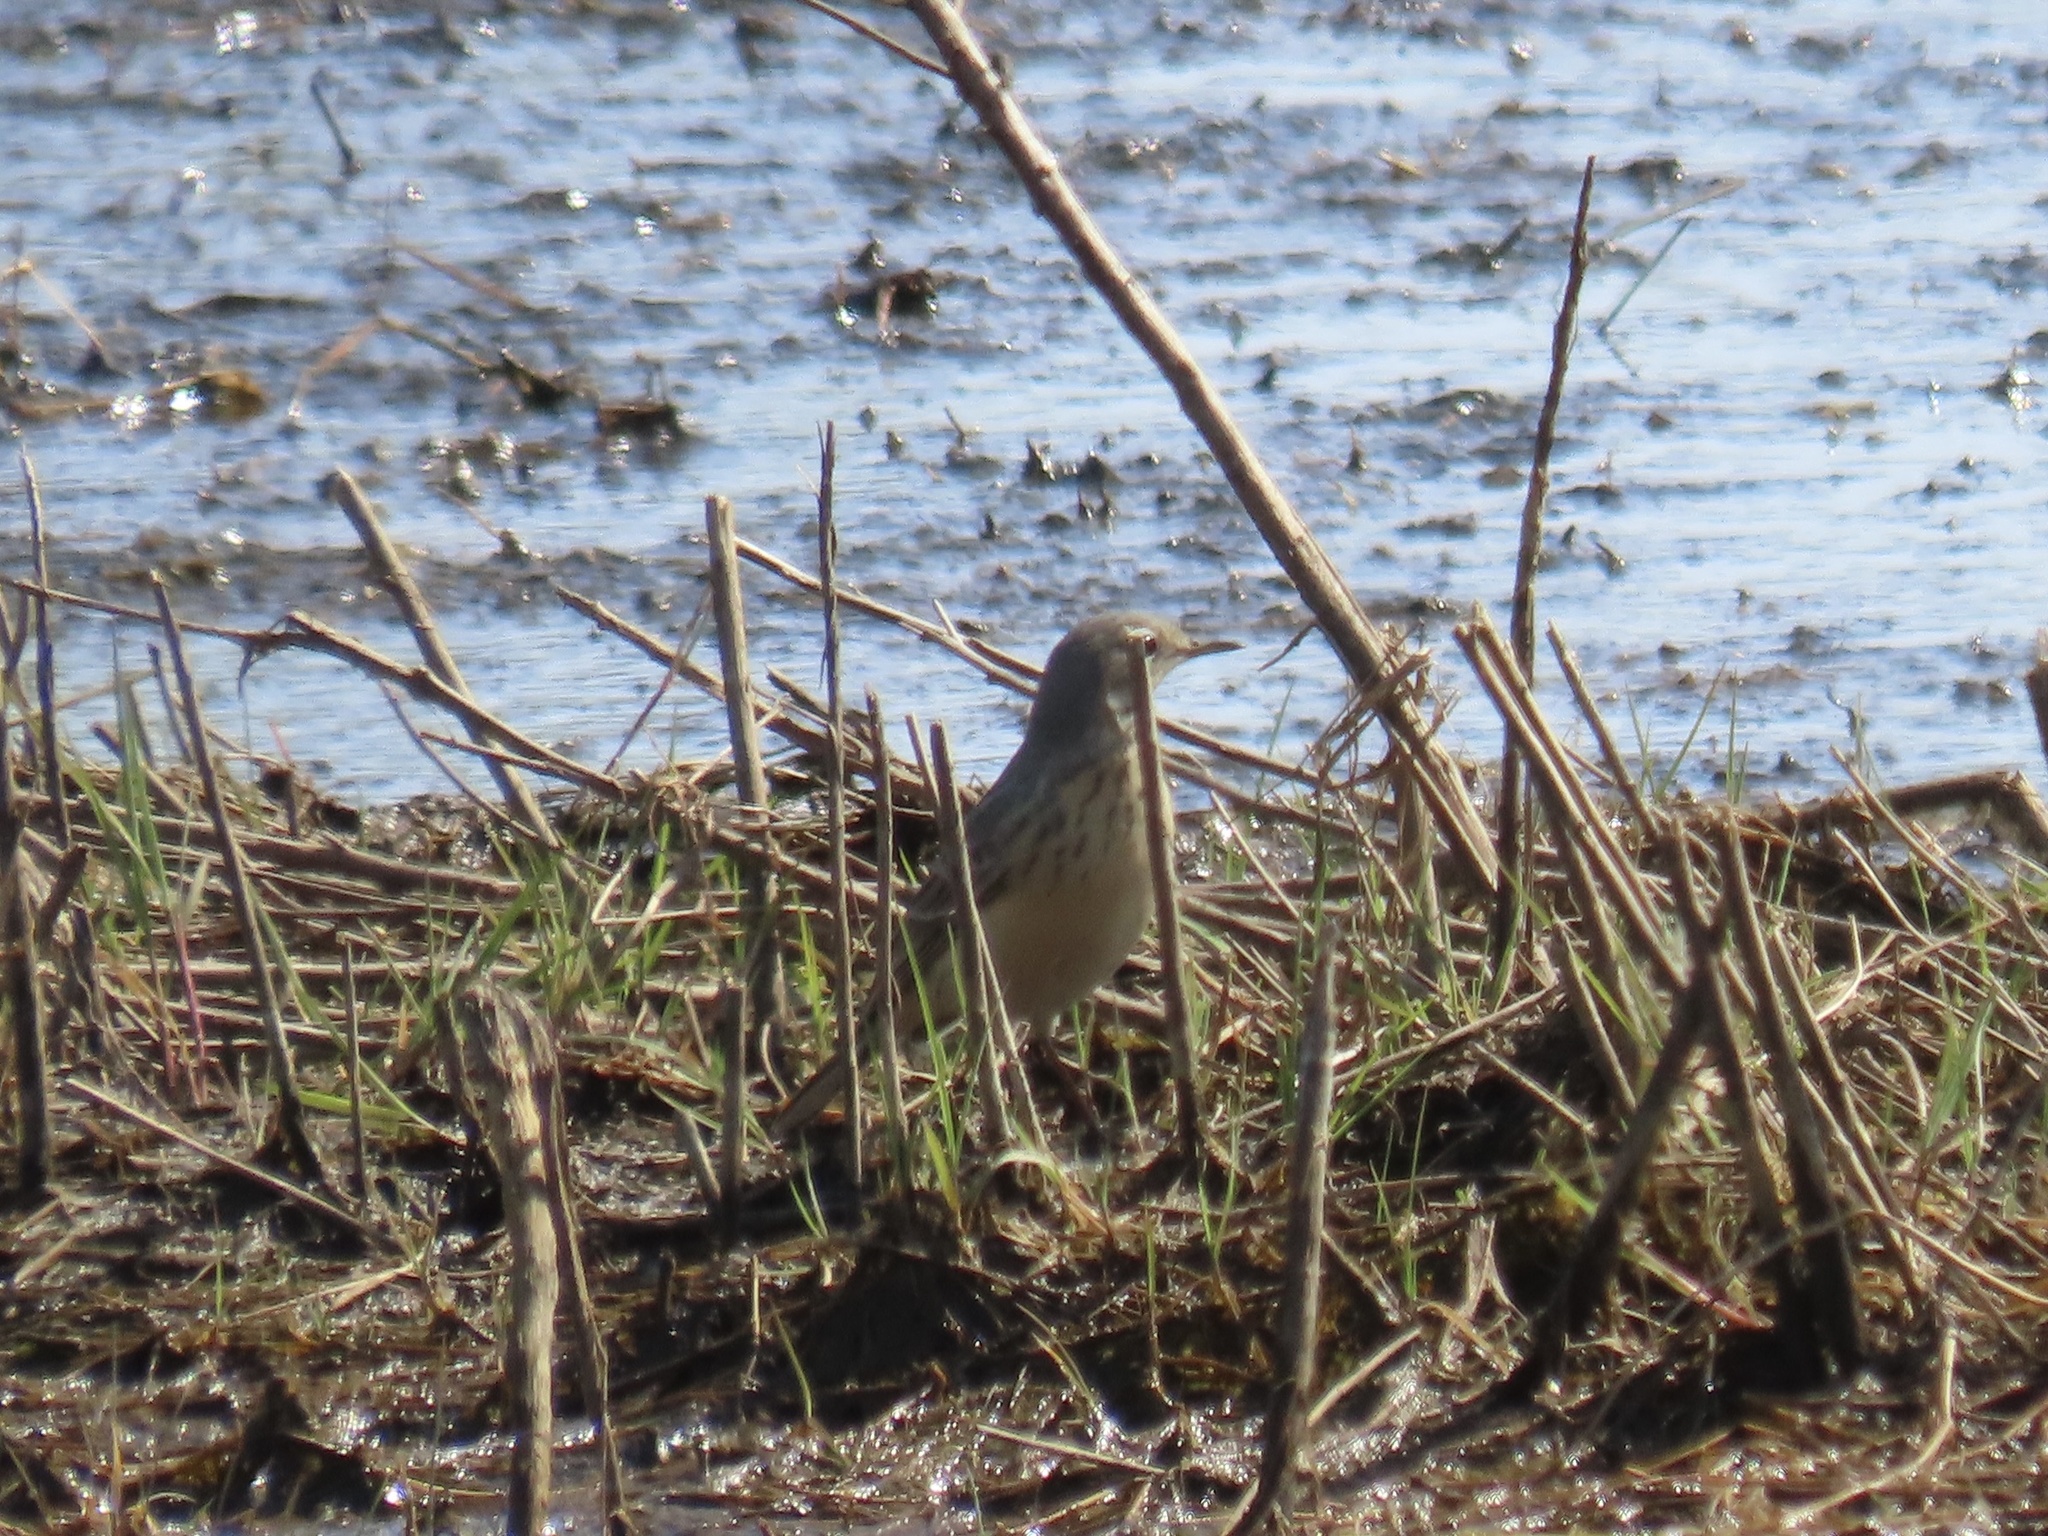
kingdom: Animalia
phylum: Chordata
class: Aves
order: Passeriformes
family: Motacillidae
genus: Anthus
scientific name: Anthus rubescens
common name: Buff-bellied pipit
